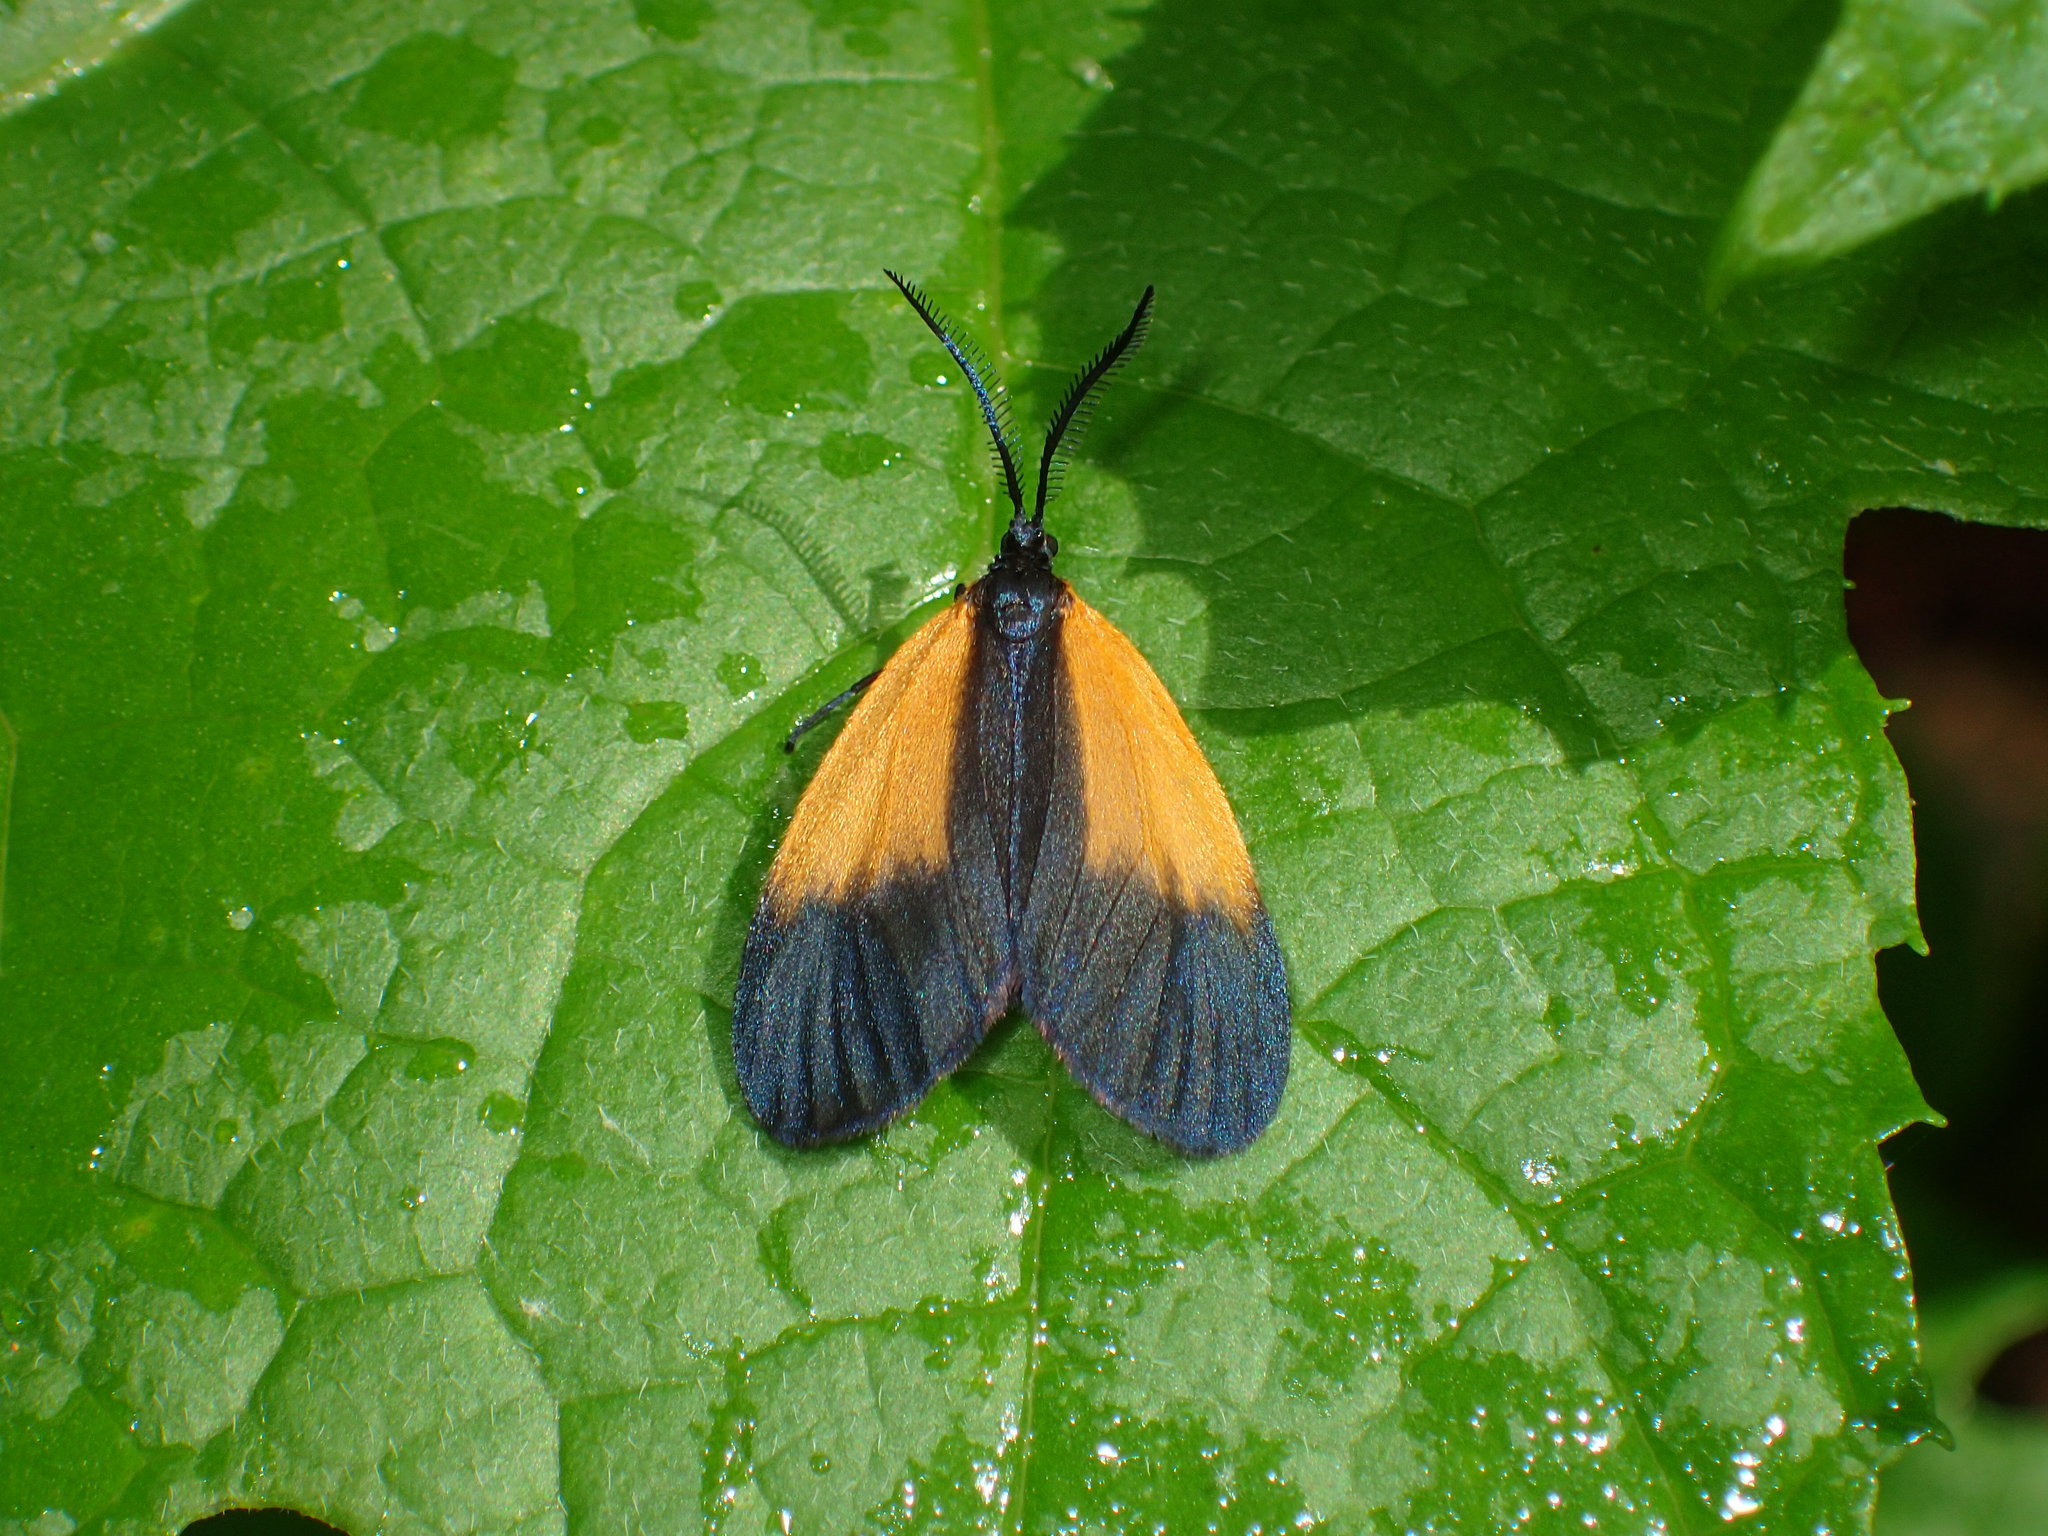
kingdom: Animalia
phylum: Arthropoda
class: Insecta
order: Lepidoptera
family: Zygaenidae
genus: Malthaca
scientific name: Malthaca dimidiata
